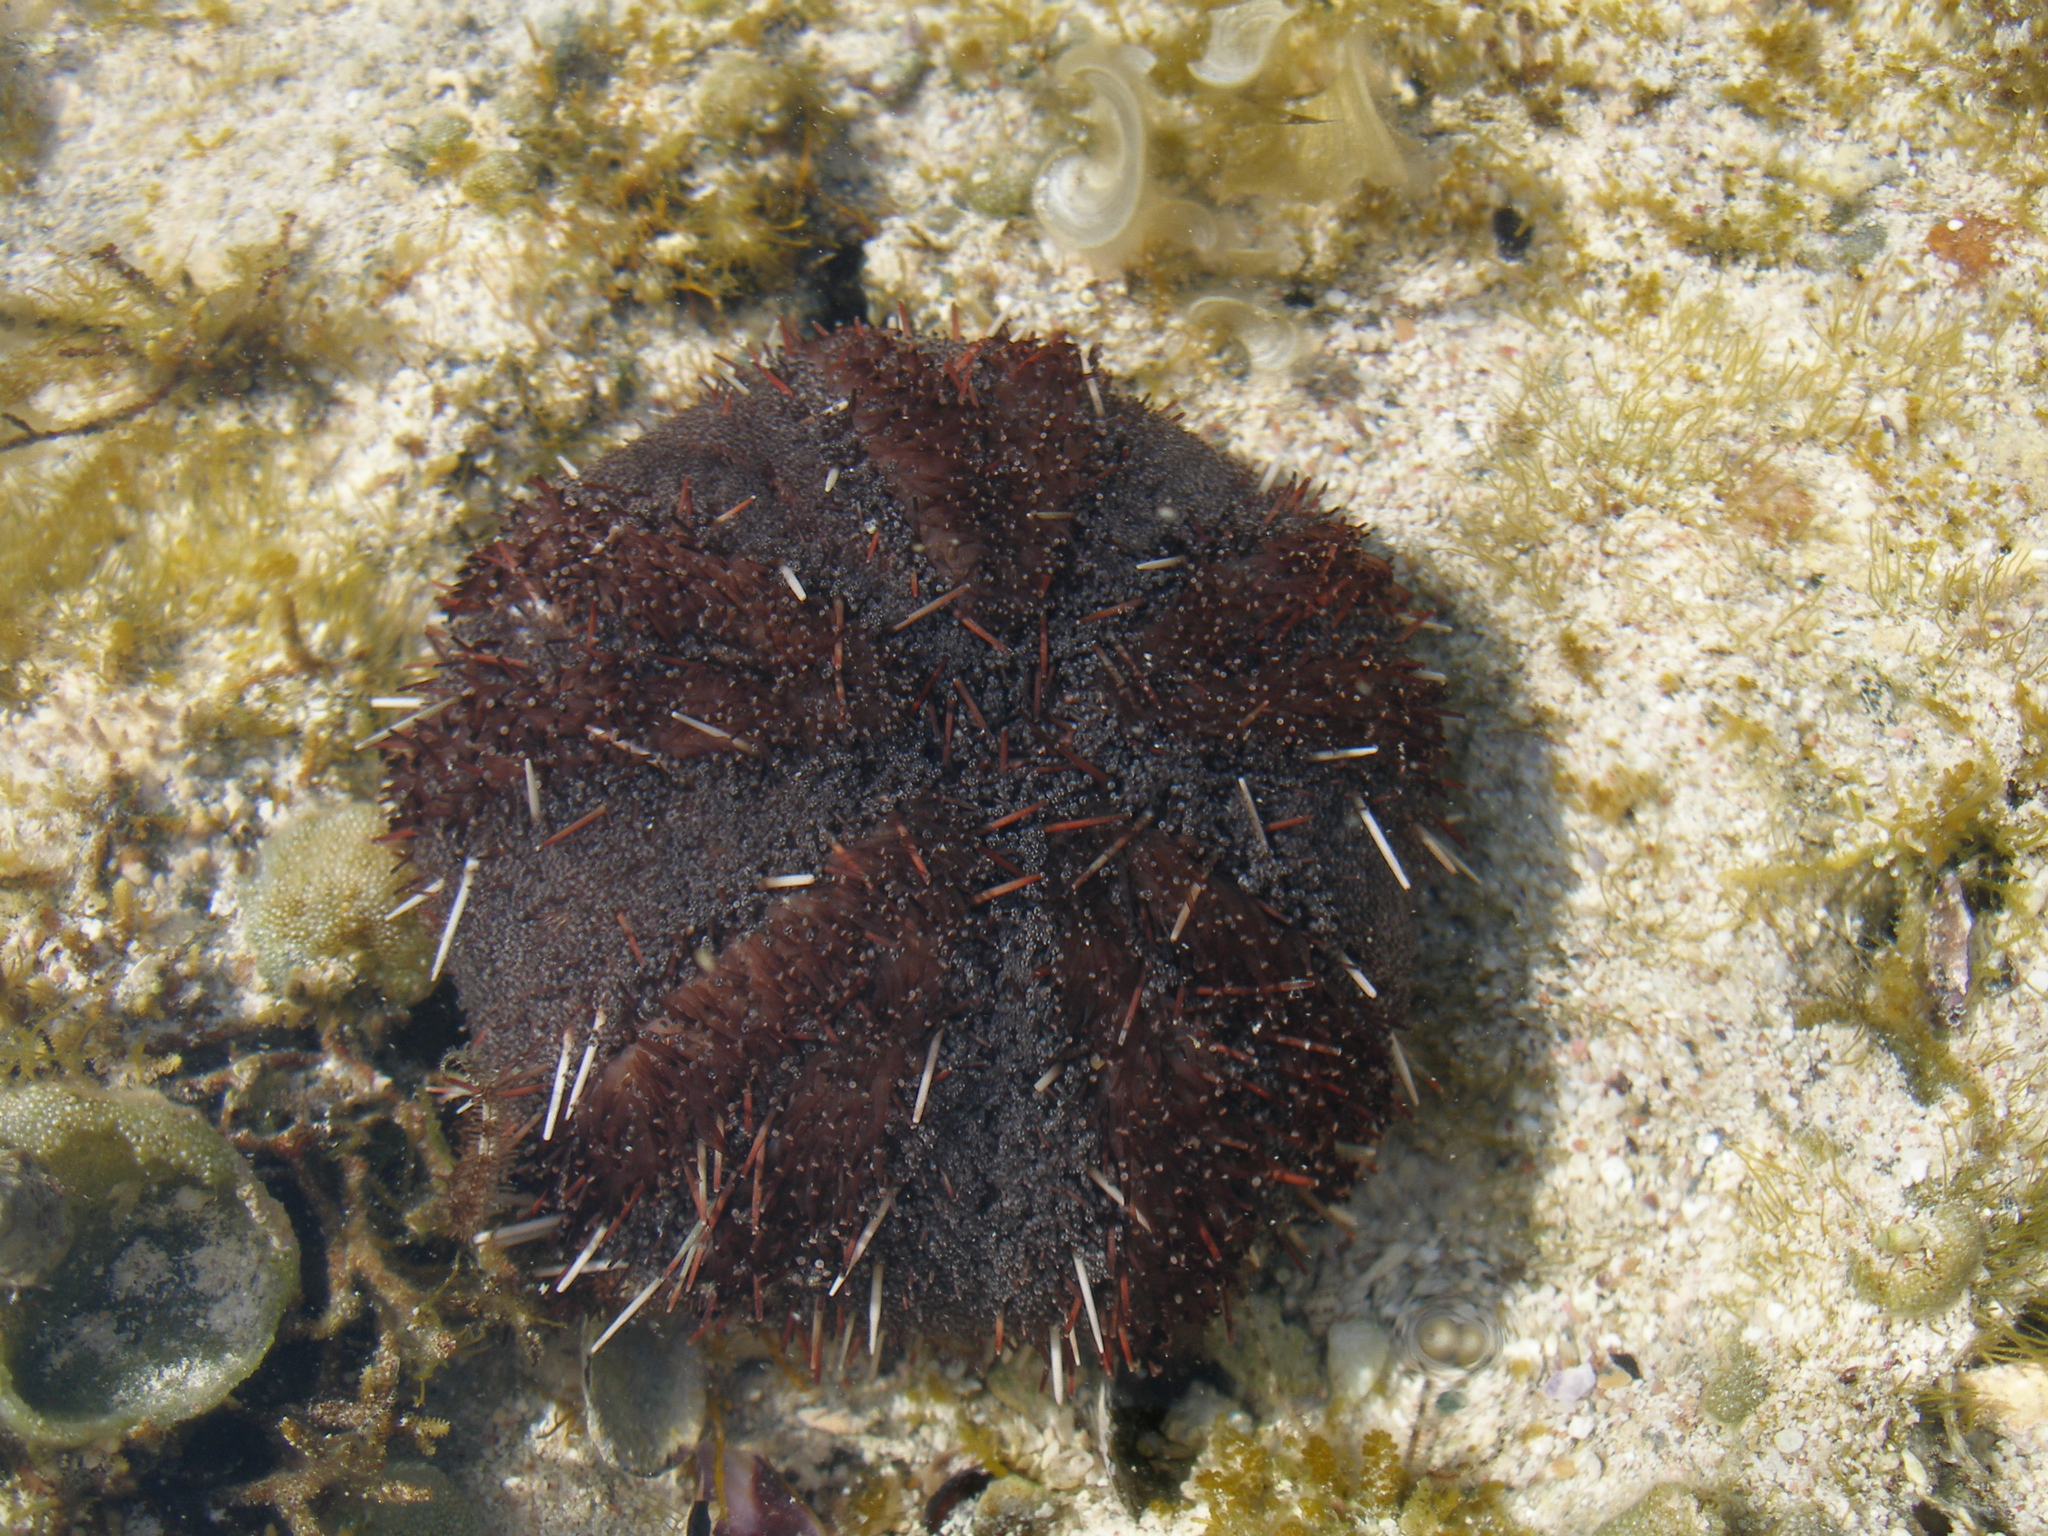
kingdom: Animalia
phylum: Echinodermata
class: Echinoidea
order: Camarodonta
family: Toxopneustidae
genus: Tripneustes
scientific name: Tripneustes gratilla
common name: Bischofsmützenseeigel
